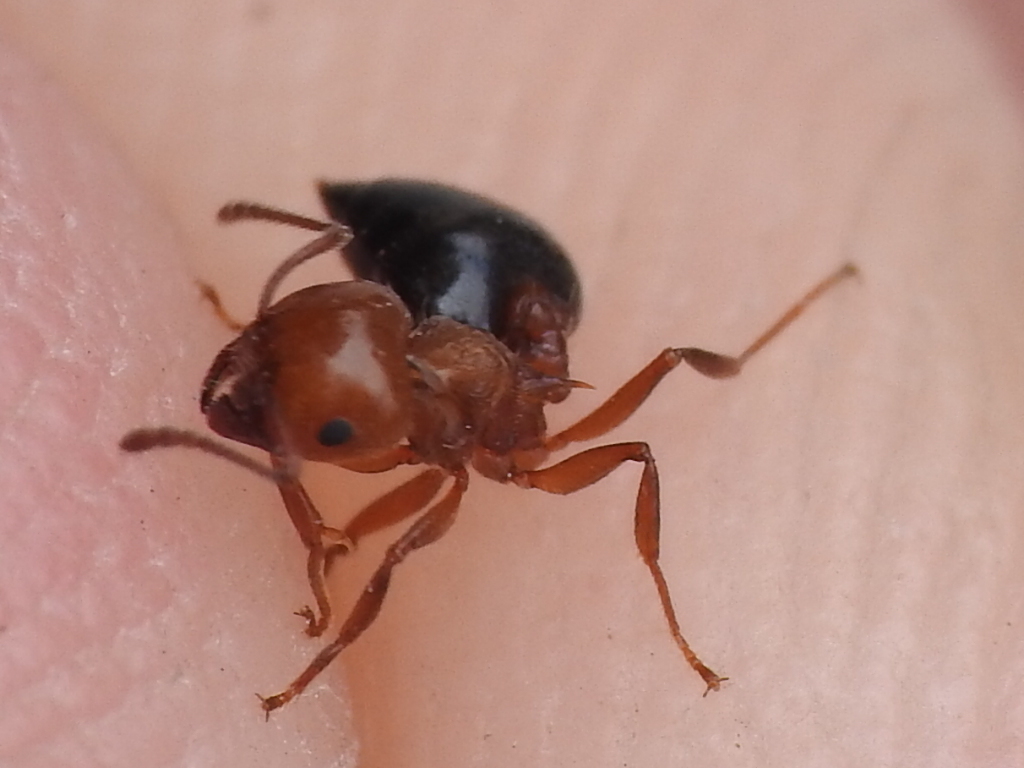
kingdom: Animalia
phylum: Arthropoda
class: Insecta
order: Hymenoptera
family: Formicidae
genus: Crematogaster
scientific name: Crematogaster laeviuscula
